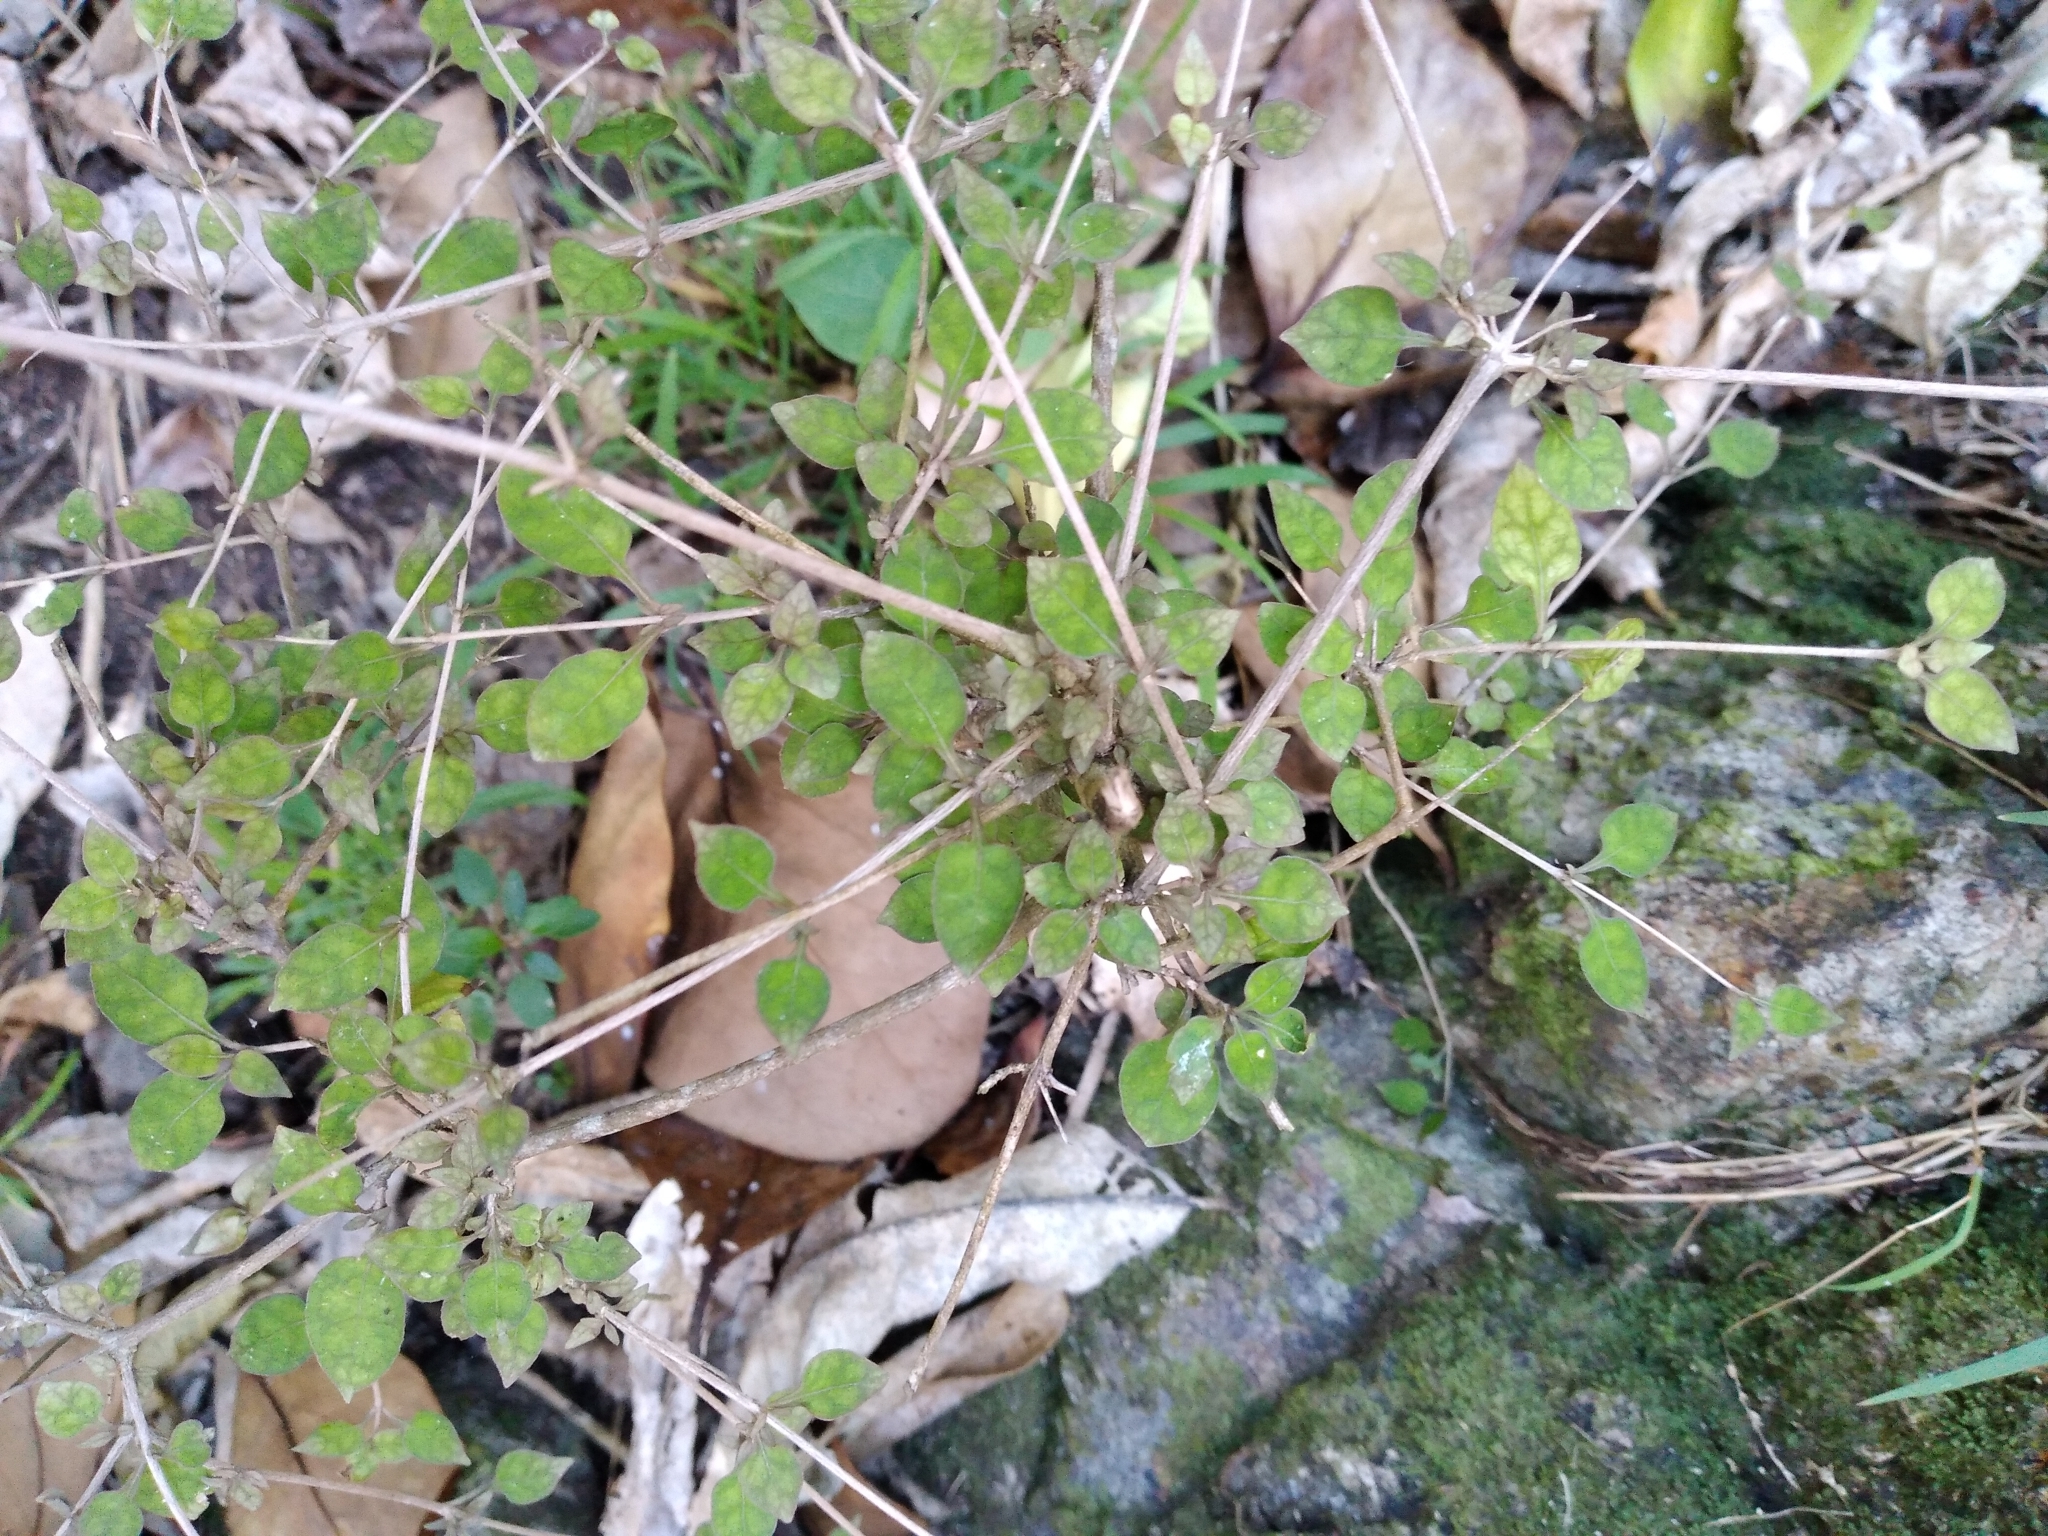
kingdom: Plantae
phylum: Tracheophyta
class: Magnoliopsida
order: Gentianales
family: Rubiaceae
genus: Coprosma
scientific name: Coprosma areolata
